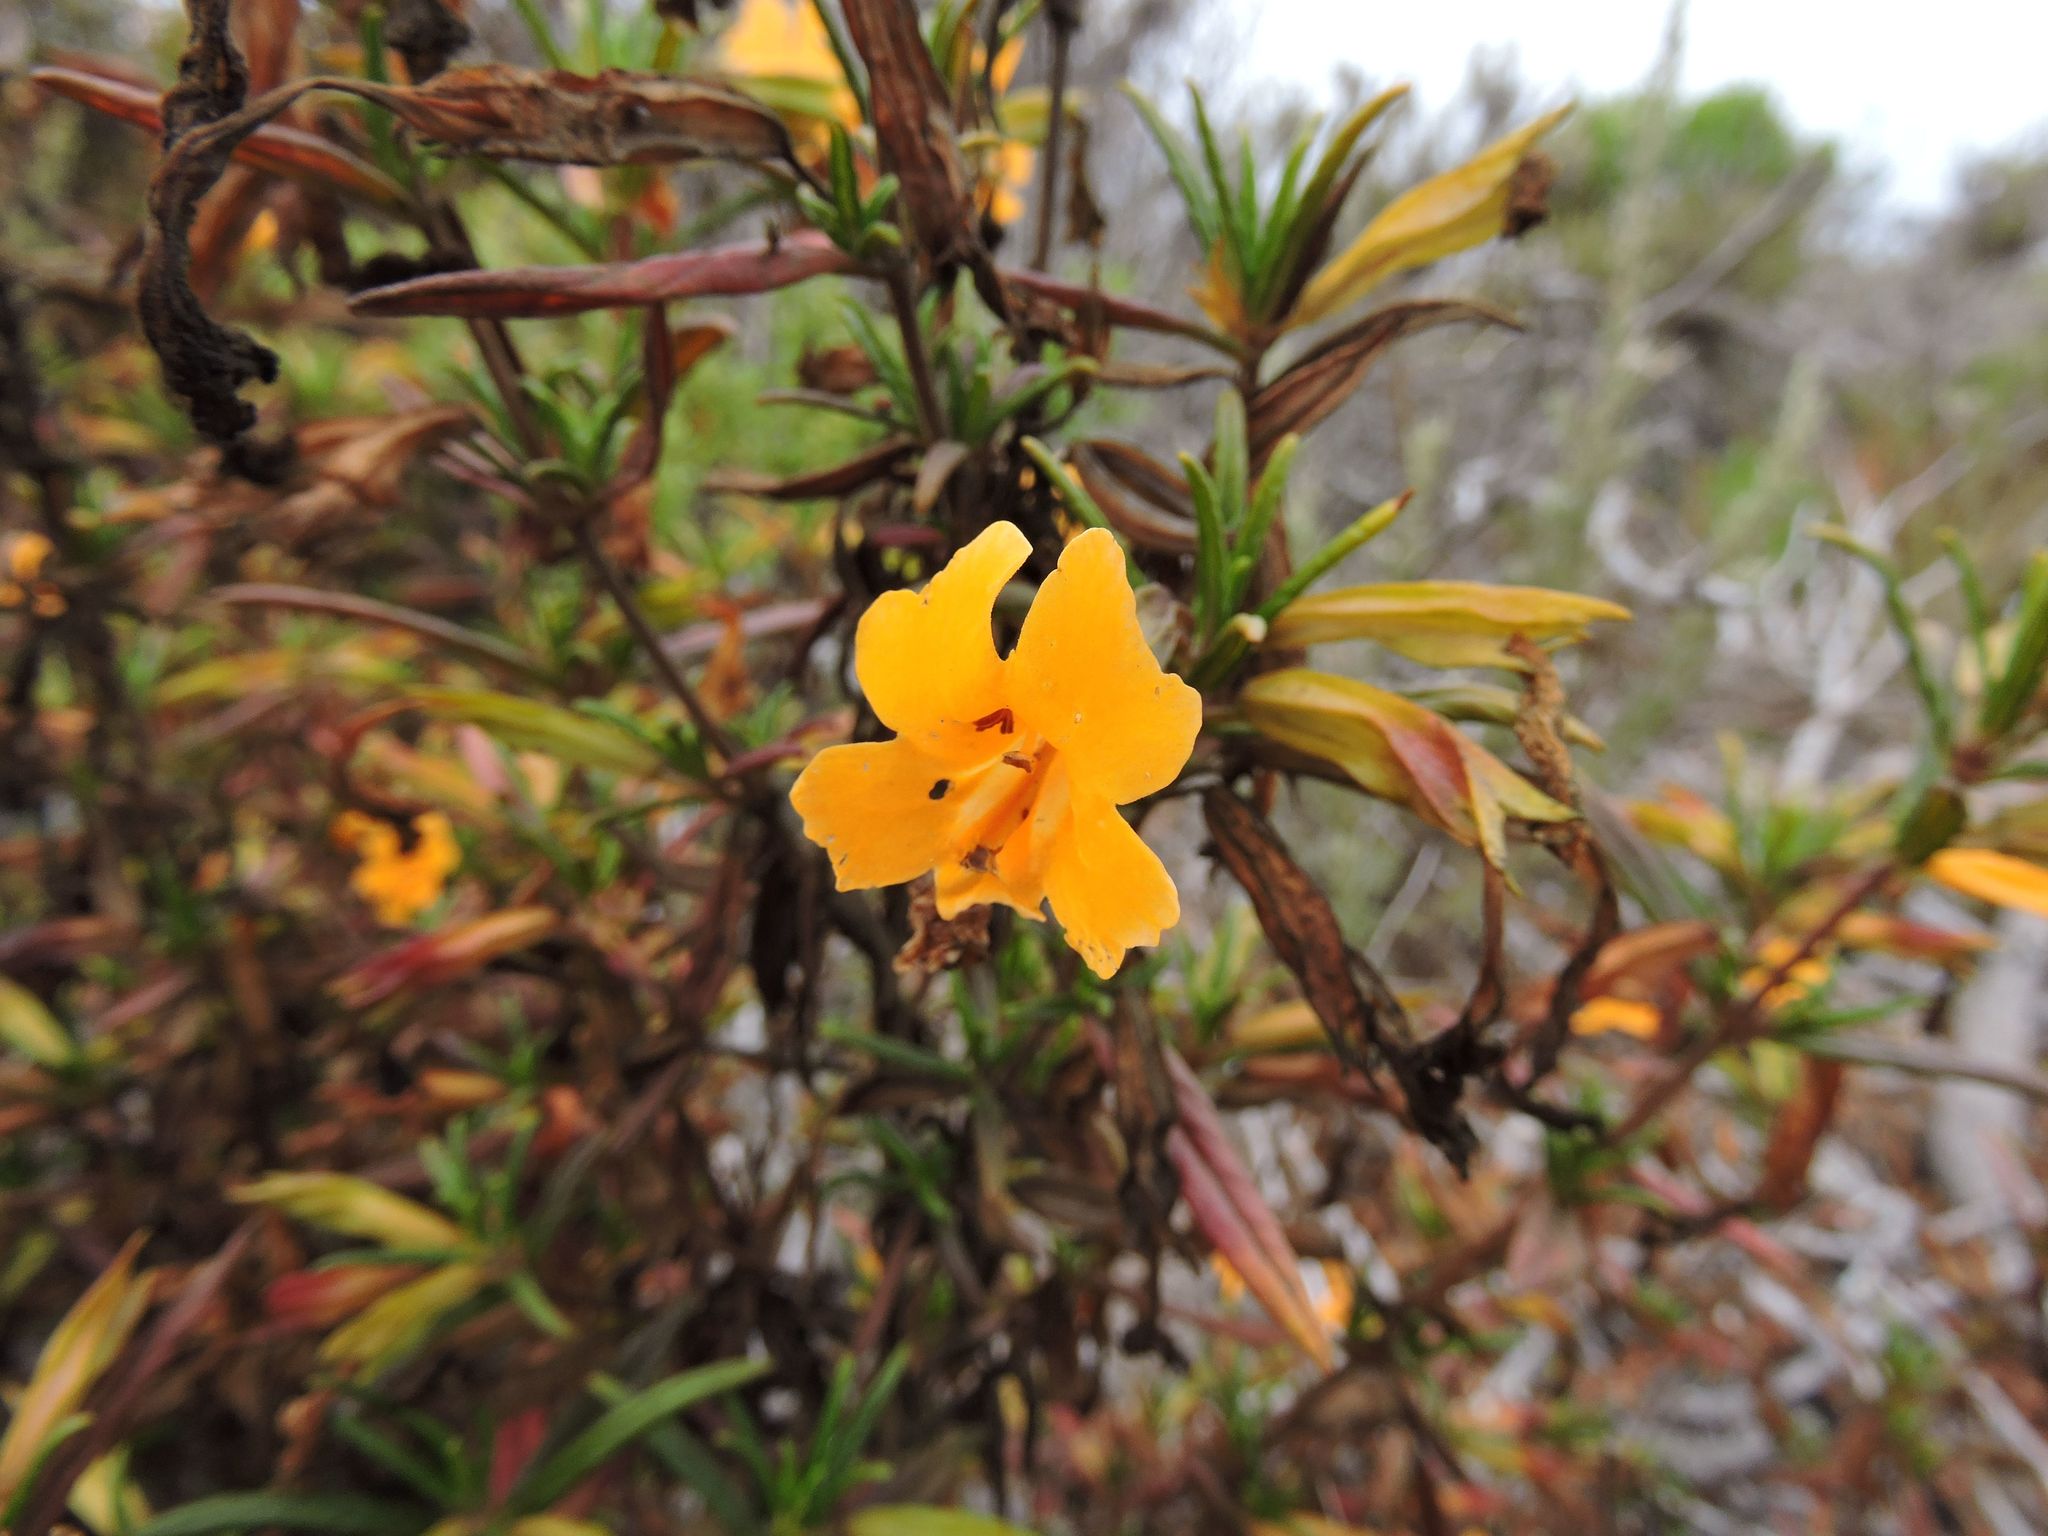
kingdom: Plantae
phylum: Tracheophyta
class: Magnoliopsida
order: Lamiales
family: Phrymaceae
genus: Diplacus
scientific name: Diplacus aurantiacus
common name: Bush monkey-flower
